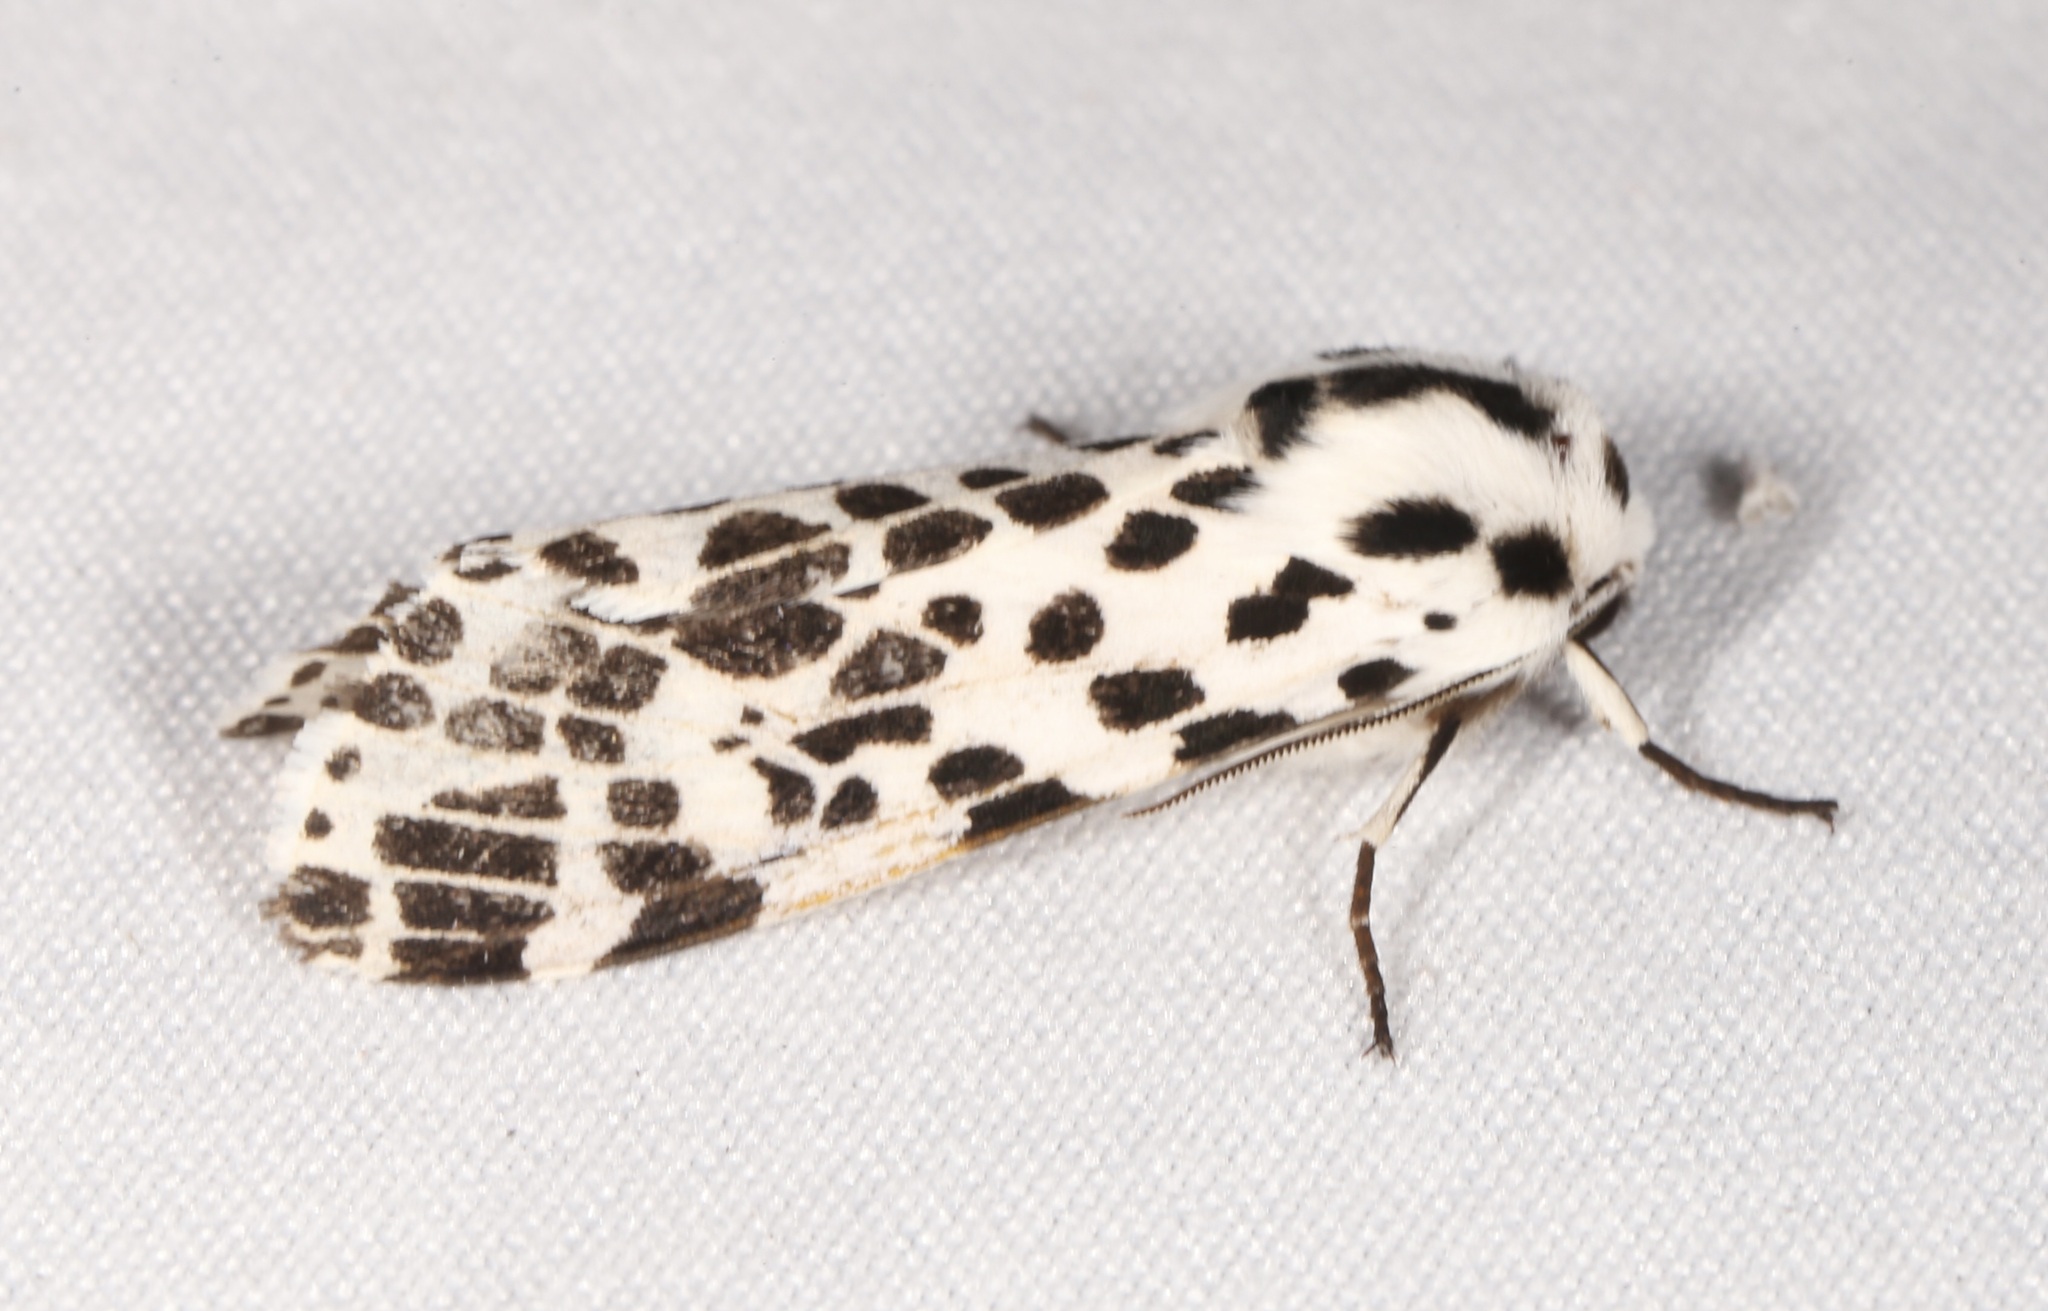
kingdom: Animalia
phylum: Arthropoda
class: Insecta
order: Lepidoptera
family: Erebidae
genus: Hypercompe
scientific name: Hypercompe permaculata
